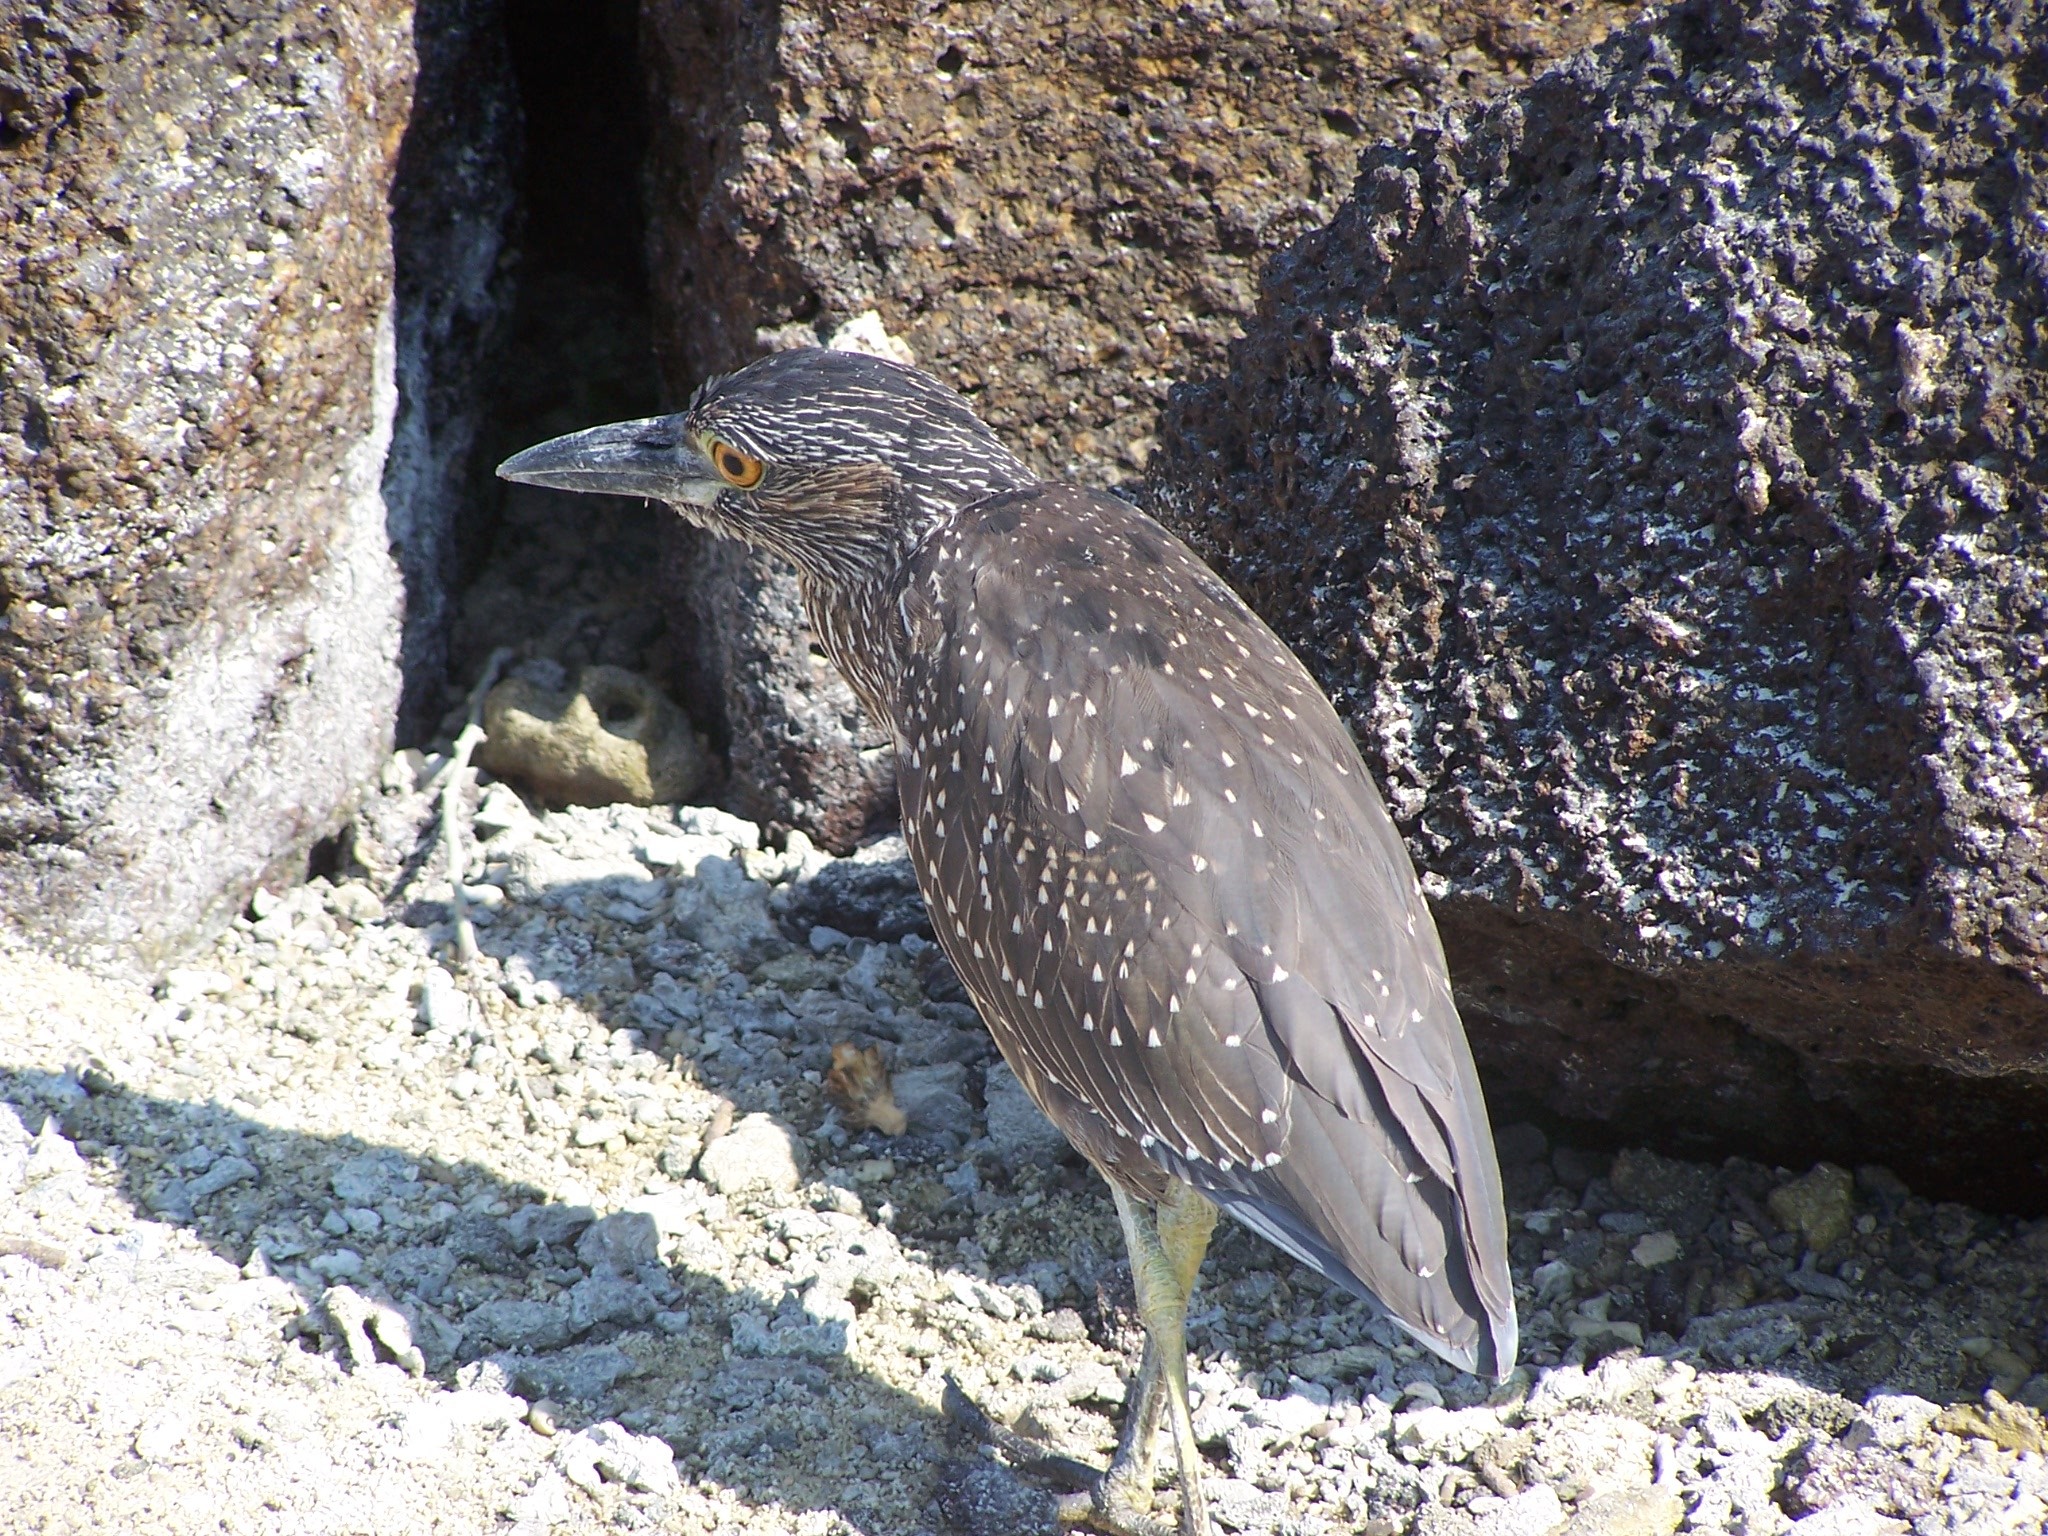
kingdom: Animalia
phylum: Chordata
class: Aves
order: Pelecaniformes
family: Ardeidae
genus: Nyctanassa
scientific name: Nyctanassa violacea
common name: Yellow-crowned night heron
